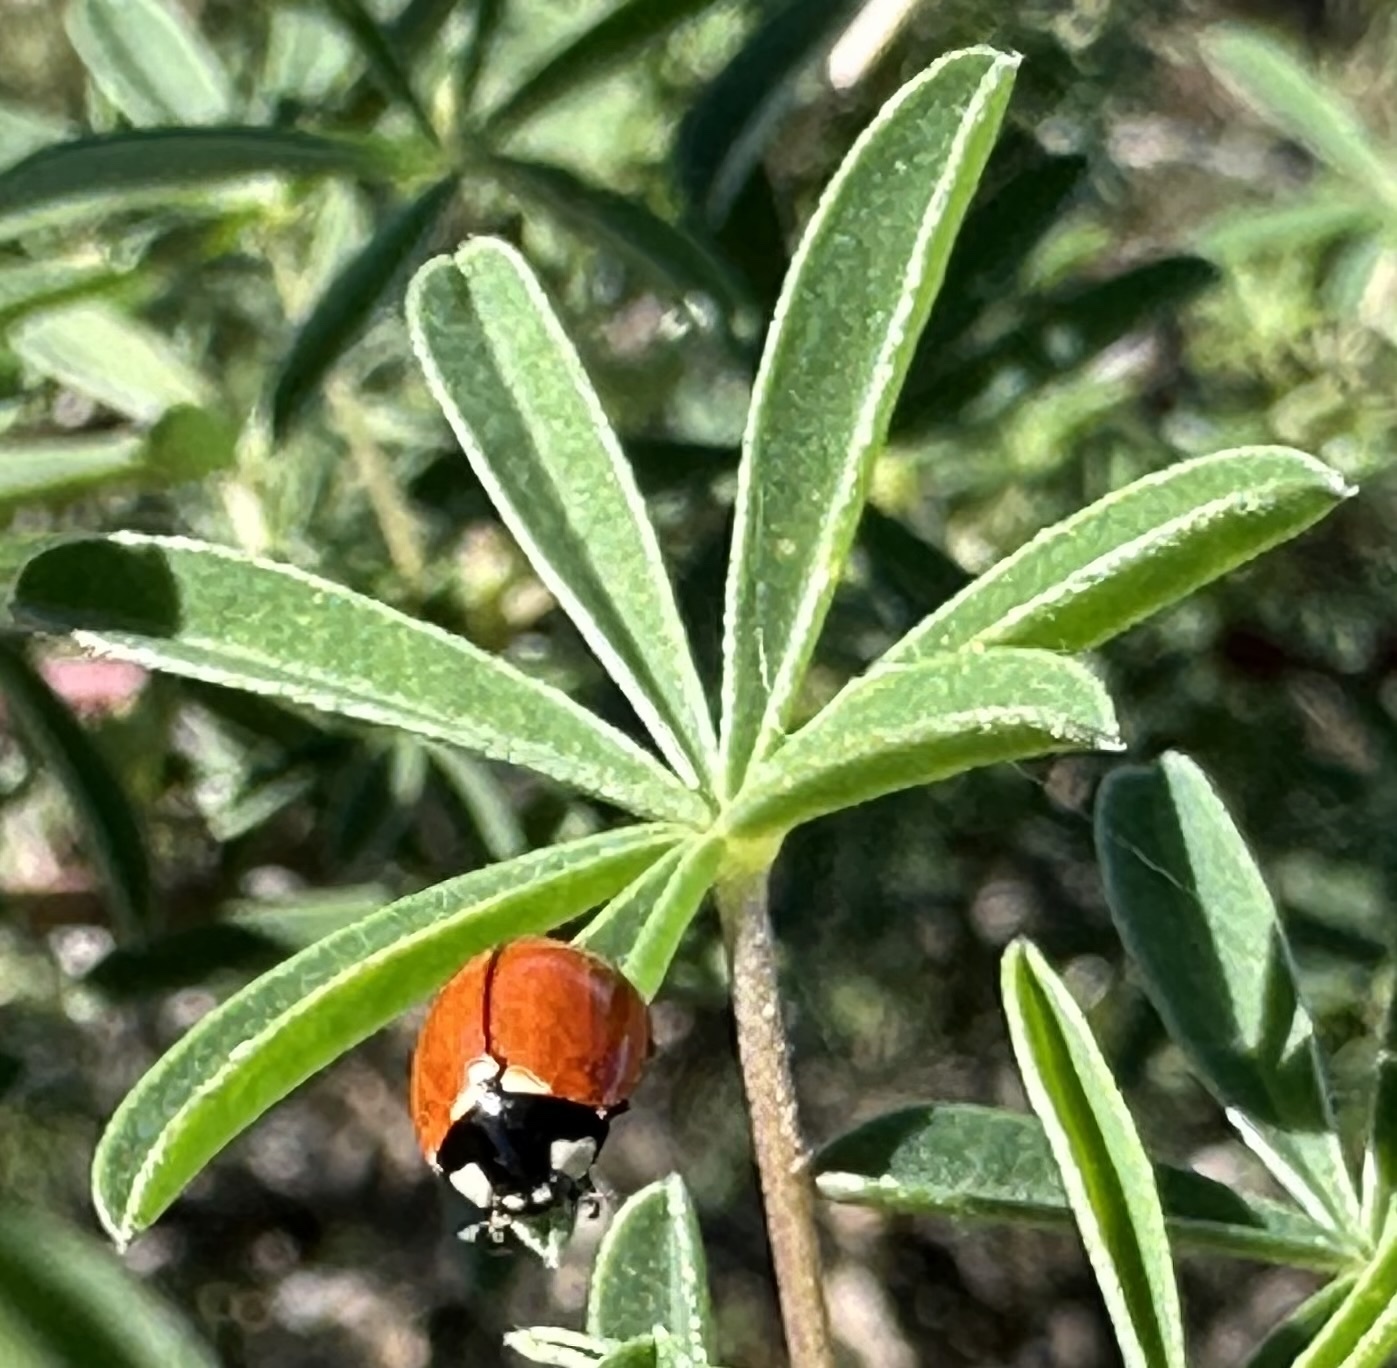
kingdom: Animalia
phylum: Arthropoda
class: Insecta
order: Coleoptera
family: Coccinellidae
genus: Coccinella
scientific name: Coccinella californica
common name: Lady beetle
